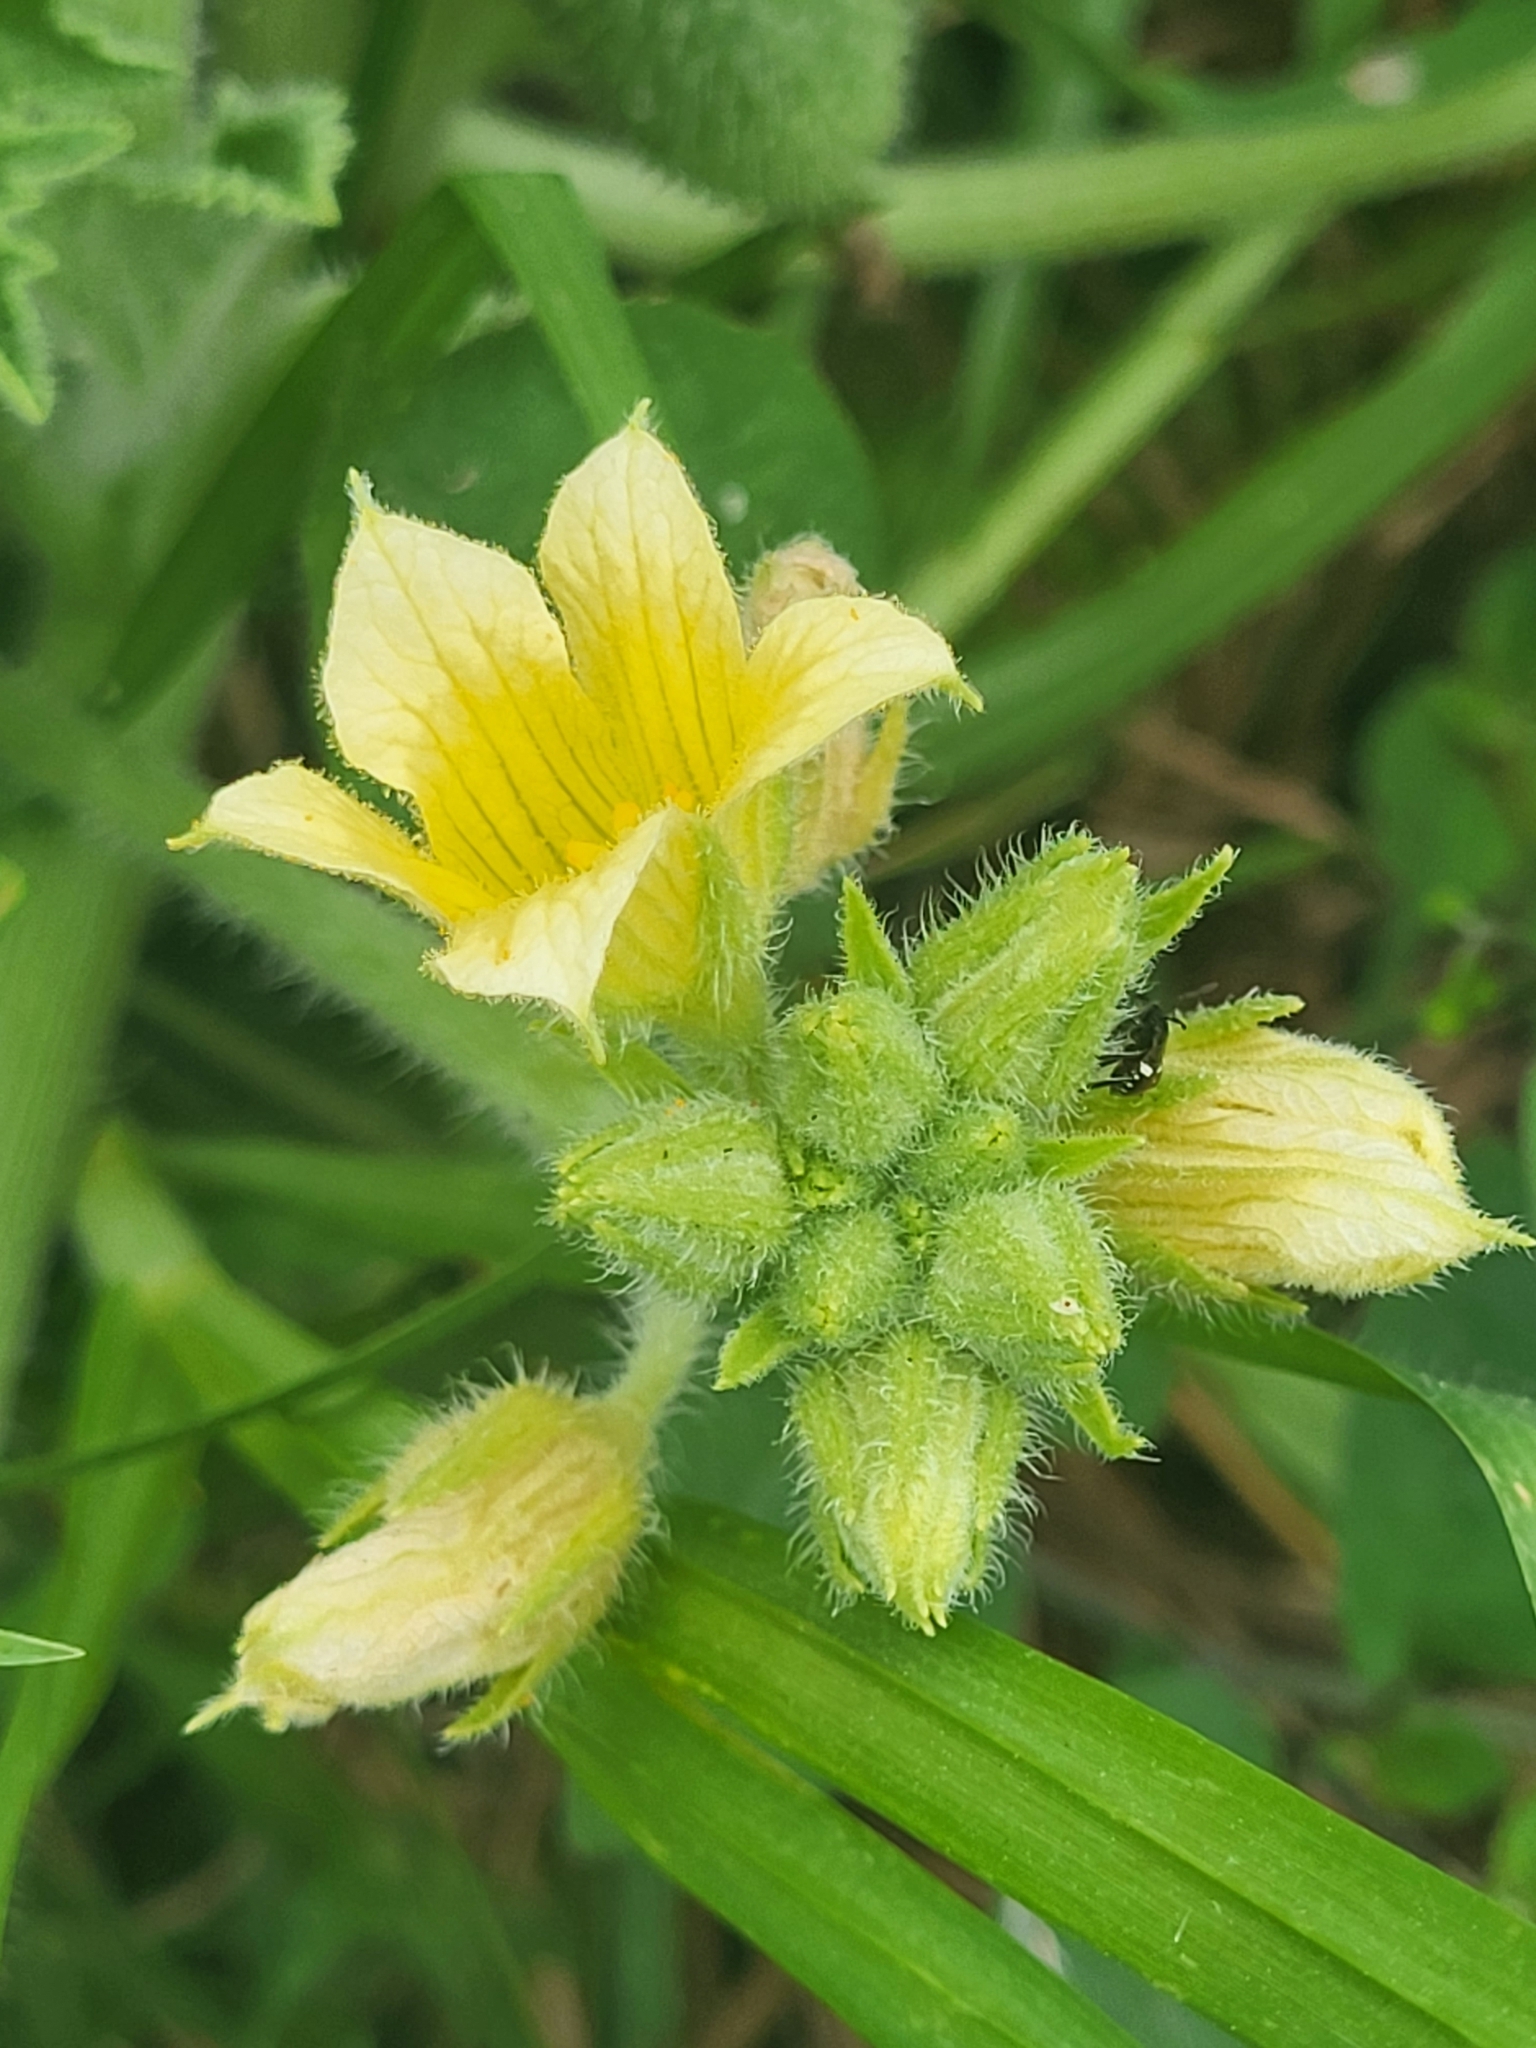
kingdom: Plantae
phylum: Tracheophyta
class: Magnoliopsida
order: Cucurbitales
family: Cucurbitaceae
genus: Ecballium
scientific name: Ecballium elaterium
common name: Squirting cucumber
